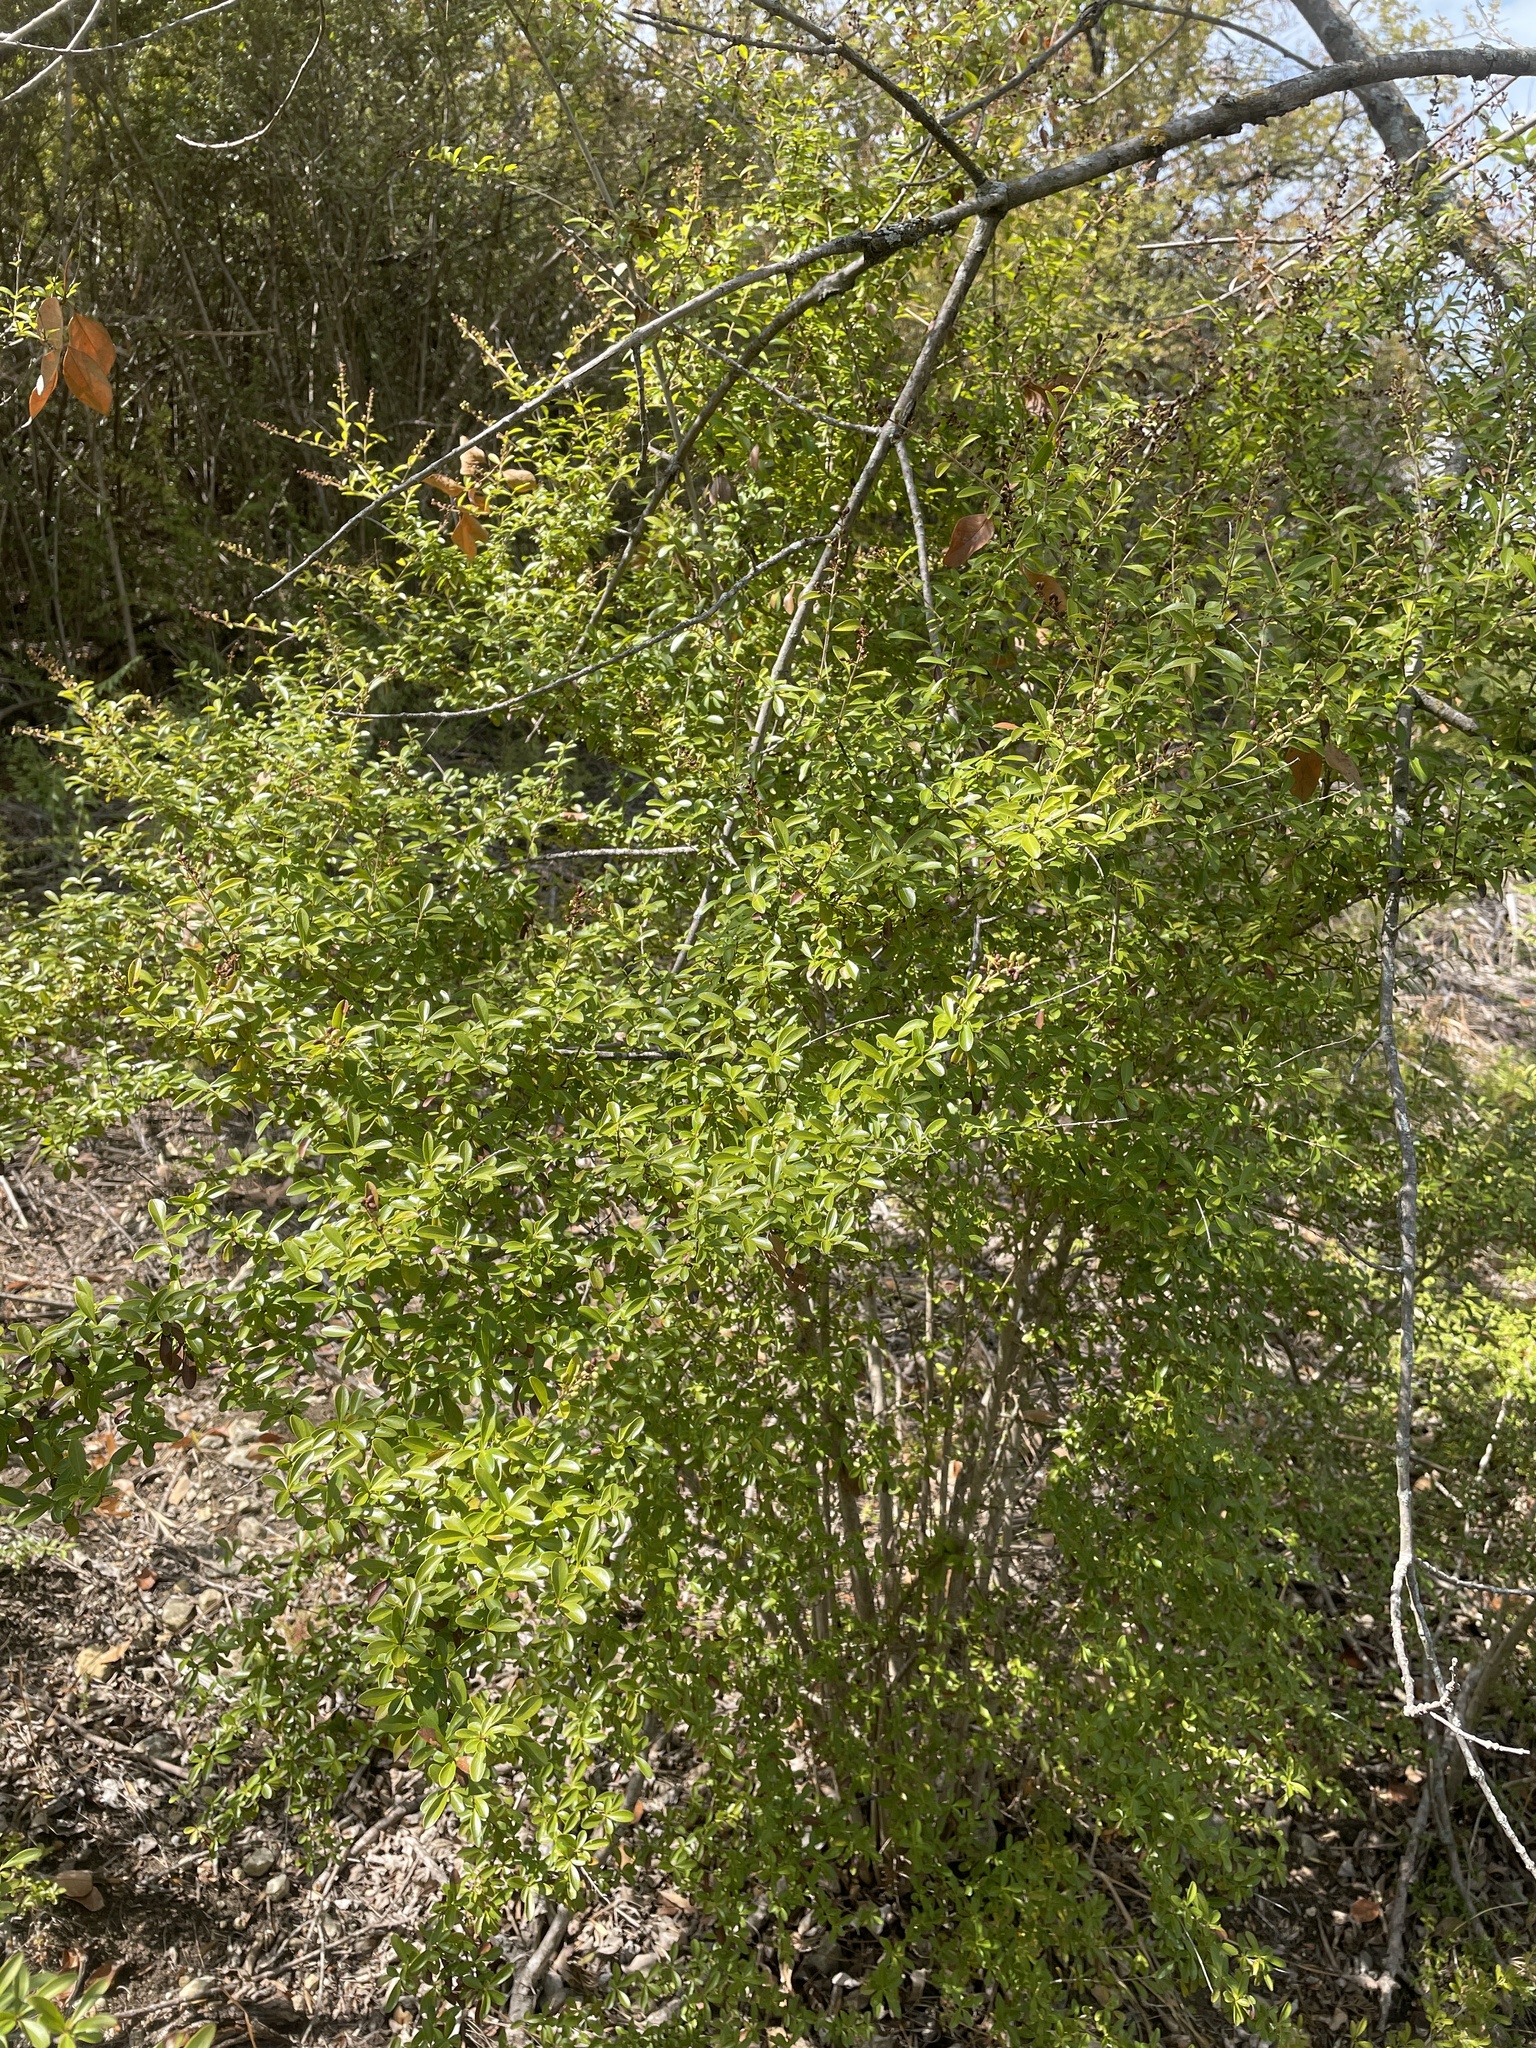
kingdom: Plantae
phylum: Tracheophyta
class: Magnoliopsida
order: Lamiales
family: Oleaceae
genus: Ligustrum
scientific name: Ligustrum quihoui
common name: Waxyleaf privet
